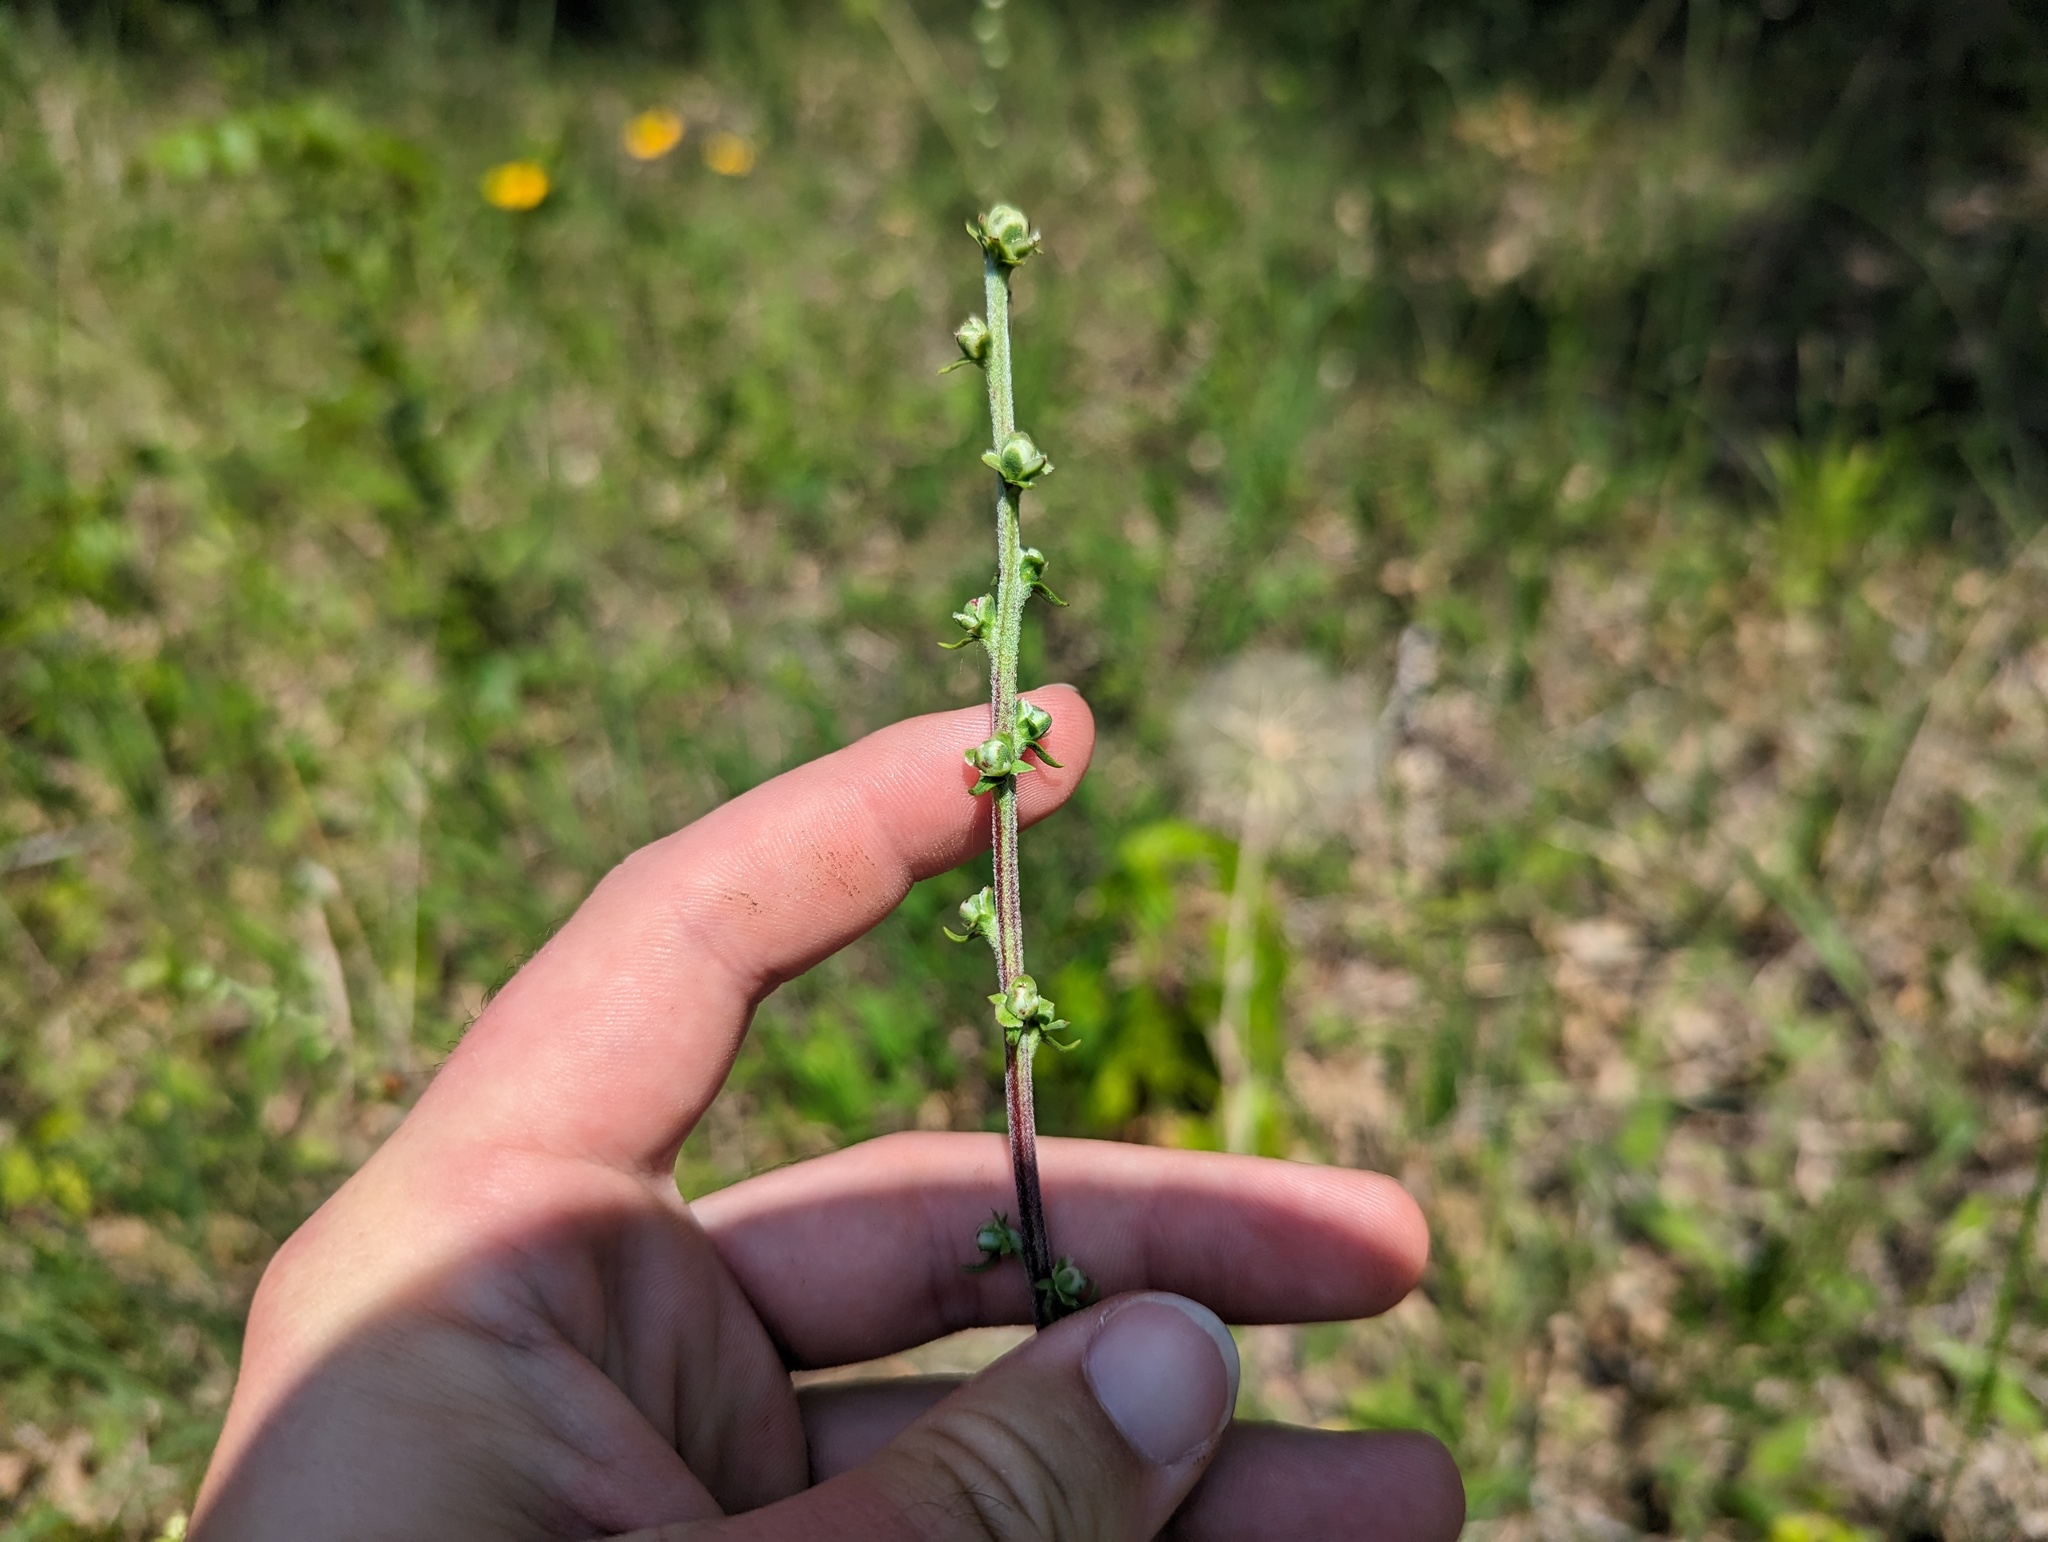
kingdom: Plantae
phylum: Tracheophyta
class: Magnoliopsida
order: Asterales
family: Asteraceae
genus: Liatris
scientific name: Liatris aspera
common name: Lacerate blazing-star
